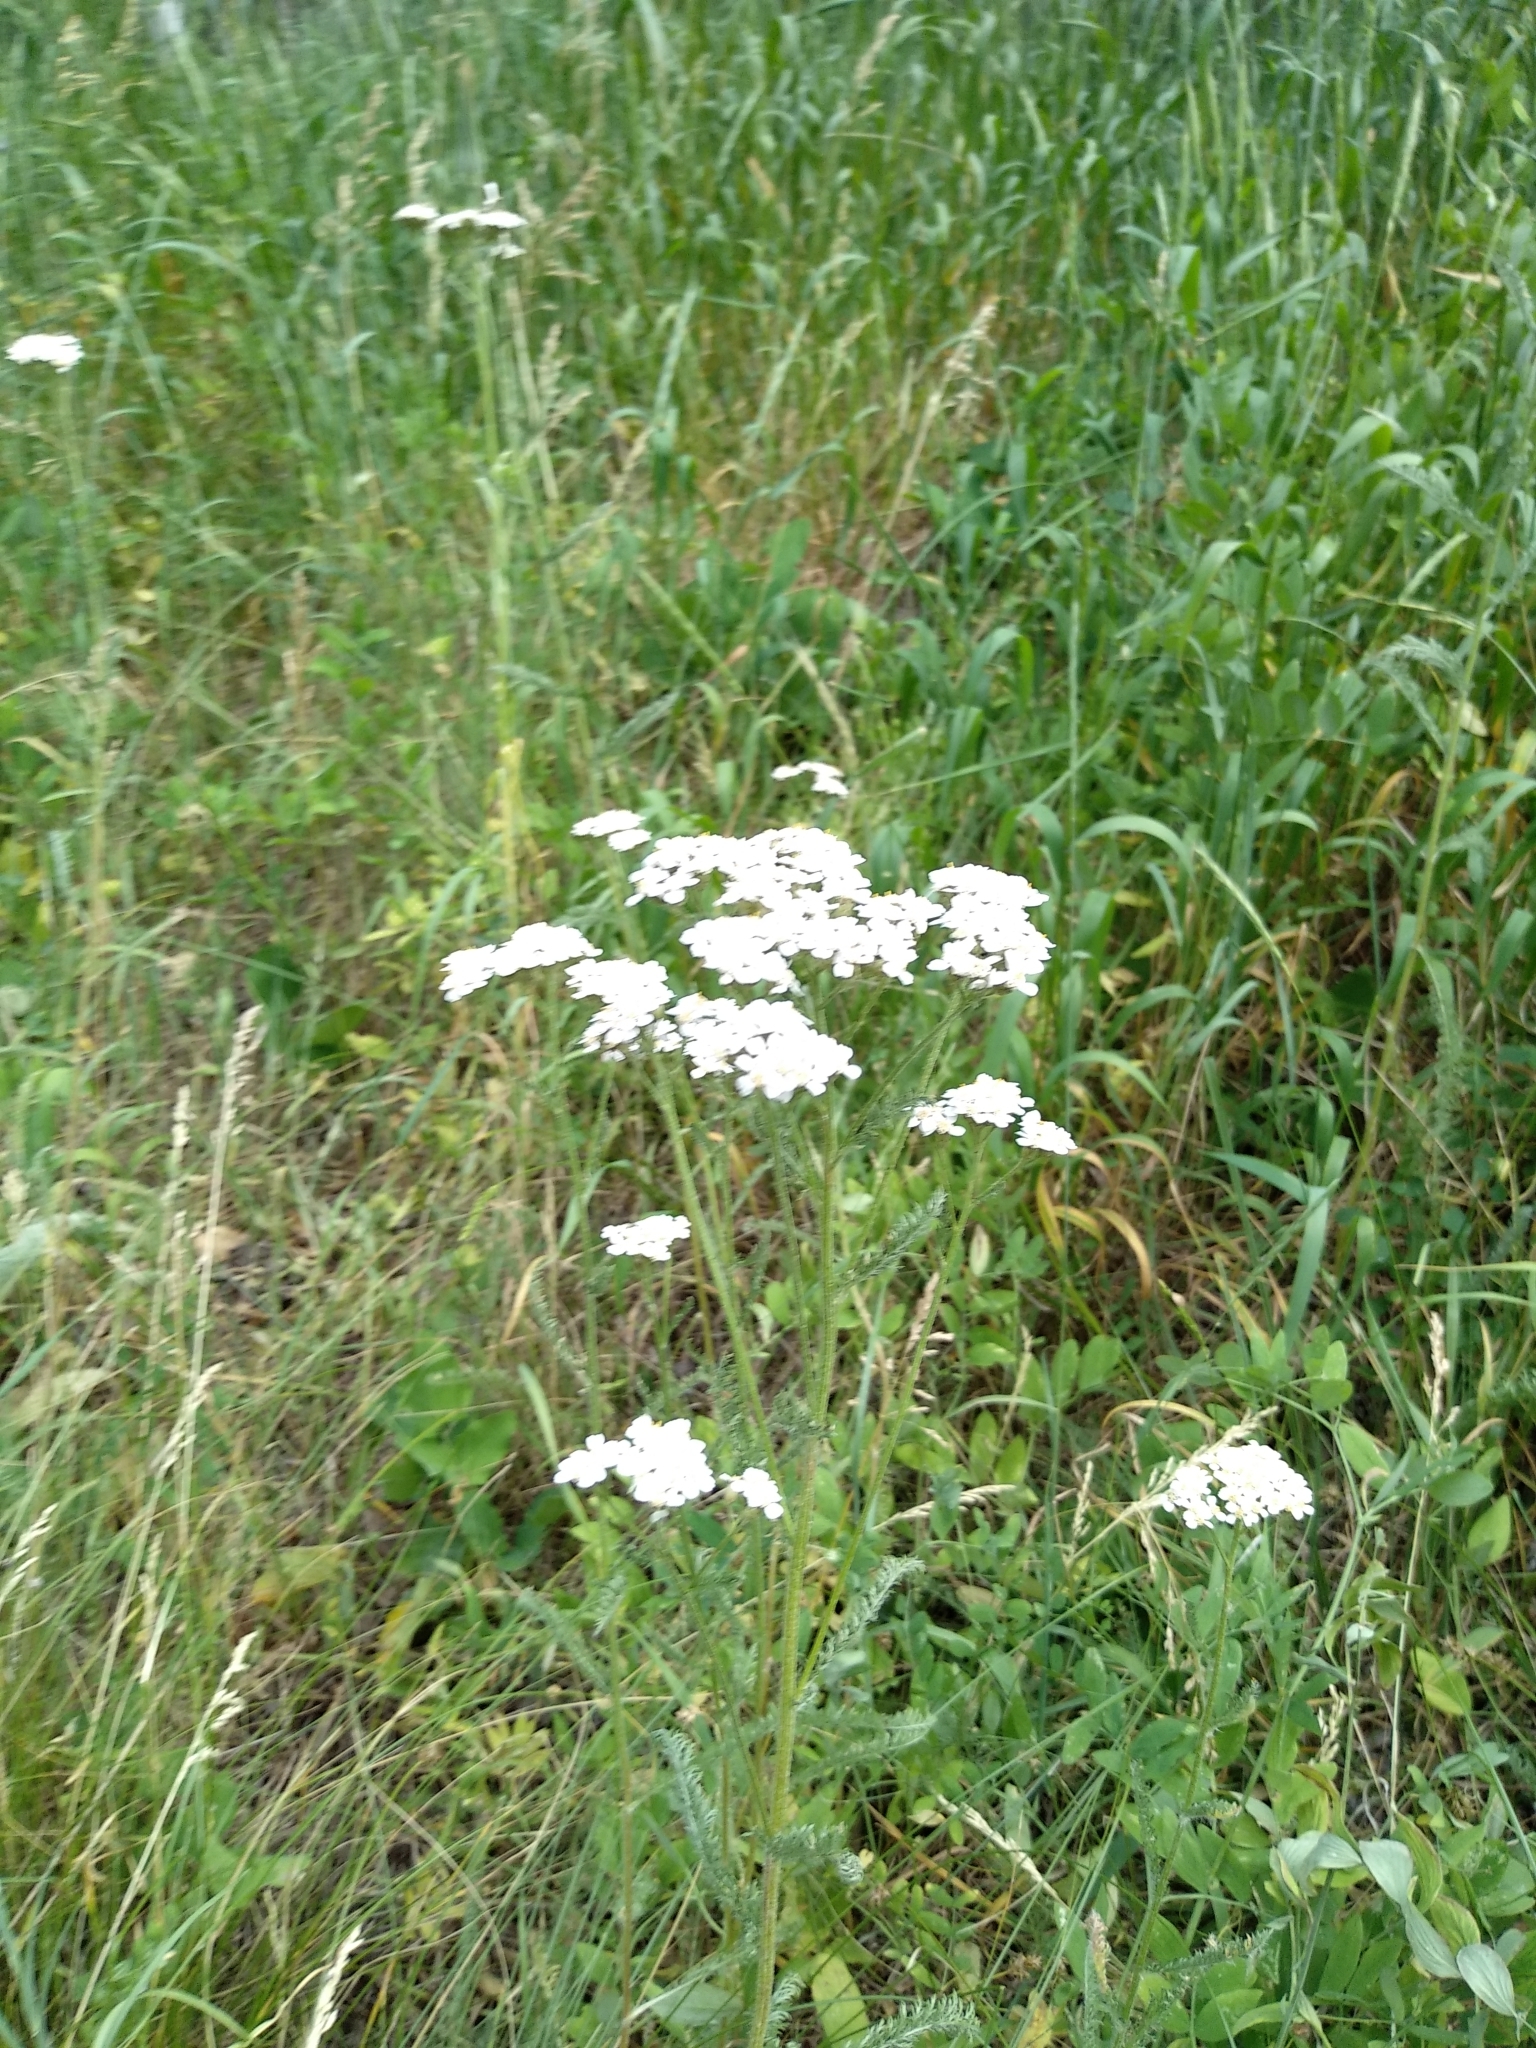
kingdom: Plantae
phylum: Tracheophyta
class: Magnoliopsida
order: Asterales
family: Asteraceae
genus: Achillea
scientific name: Achillea millefolium
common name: Yarrow
